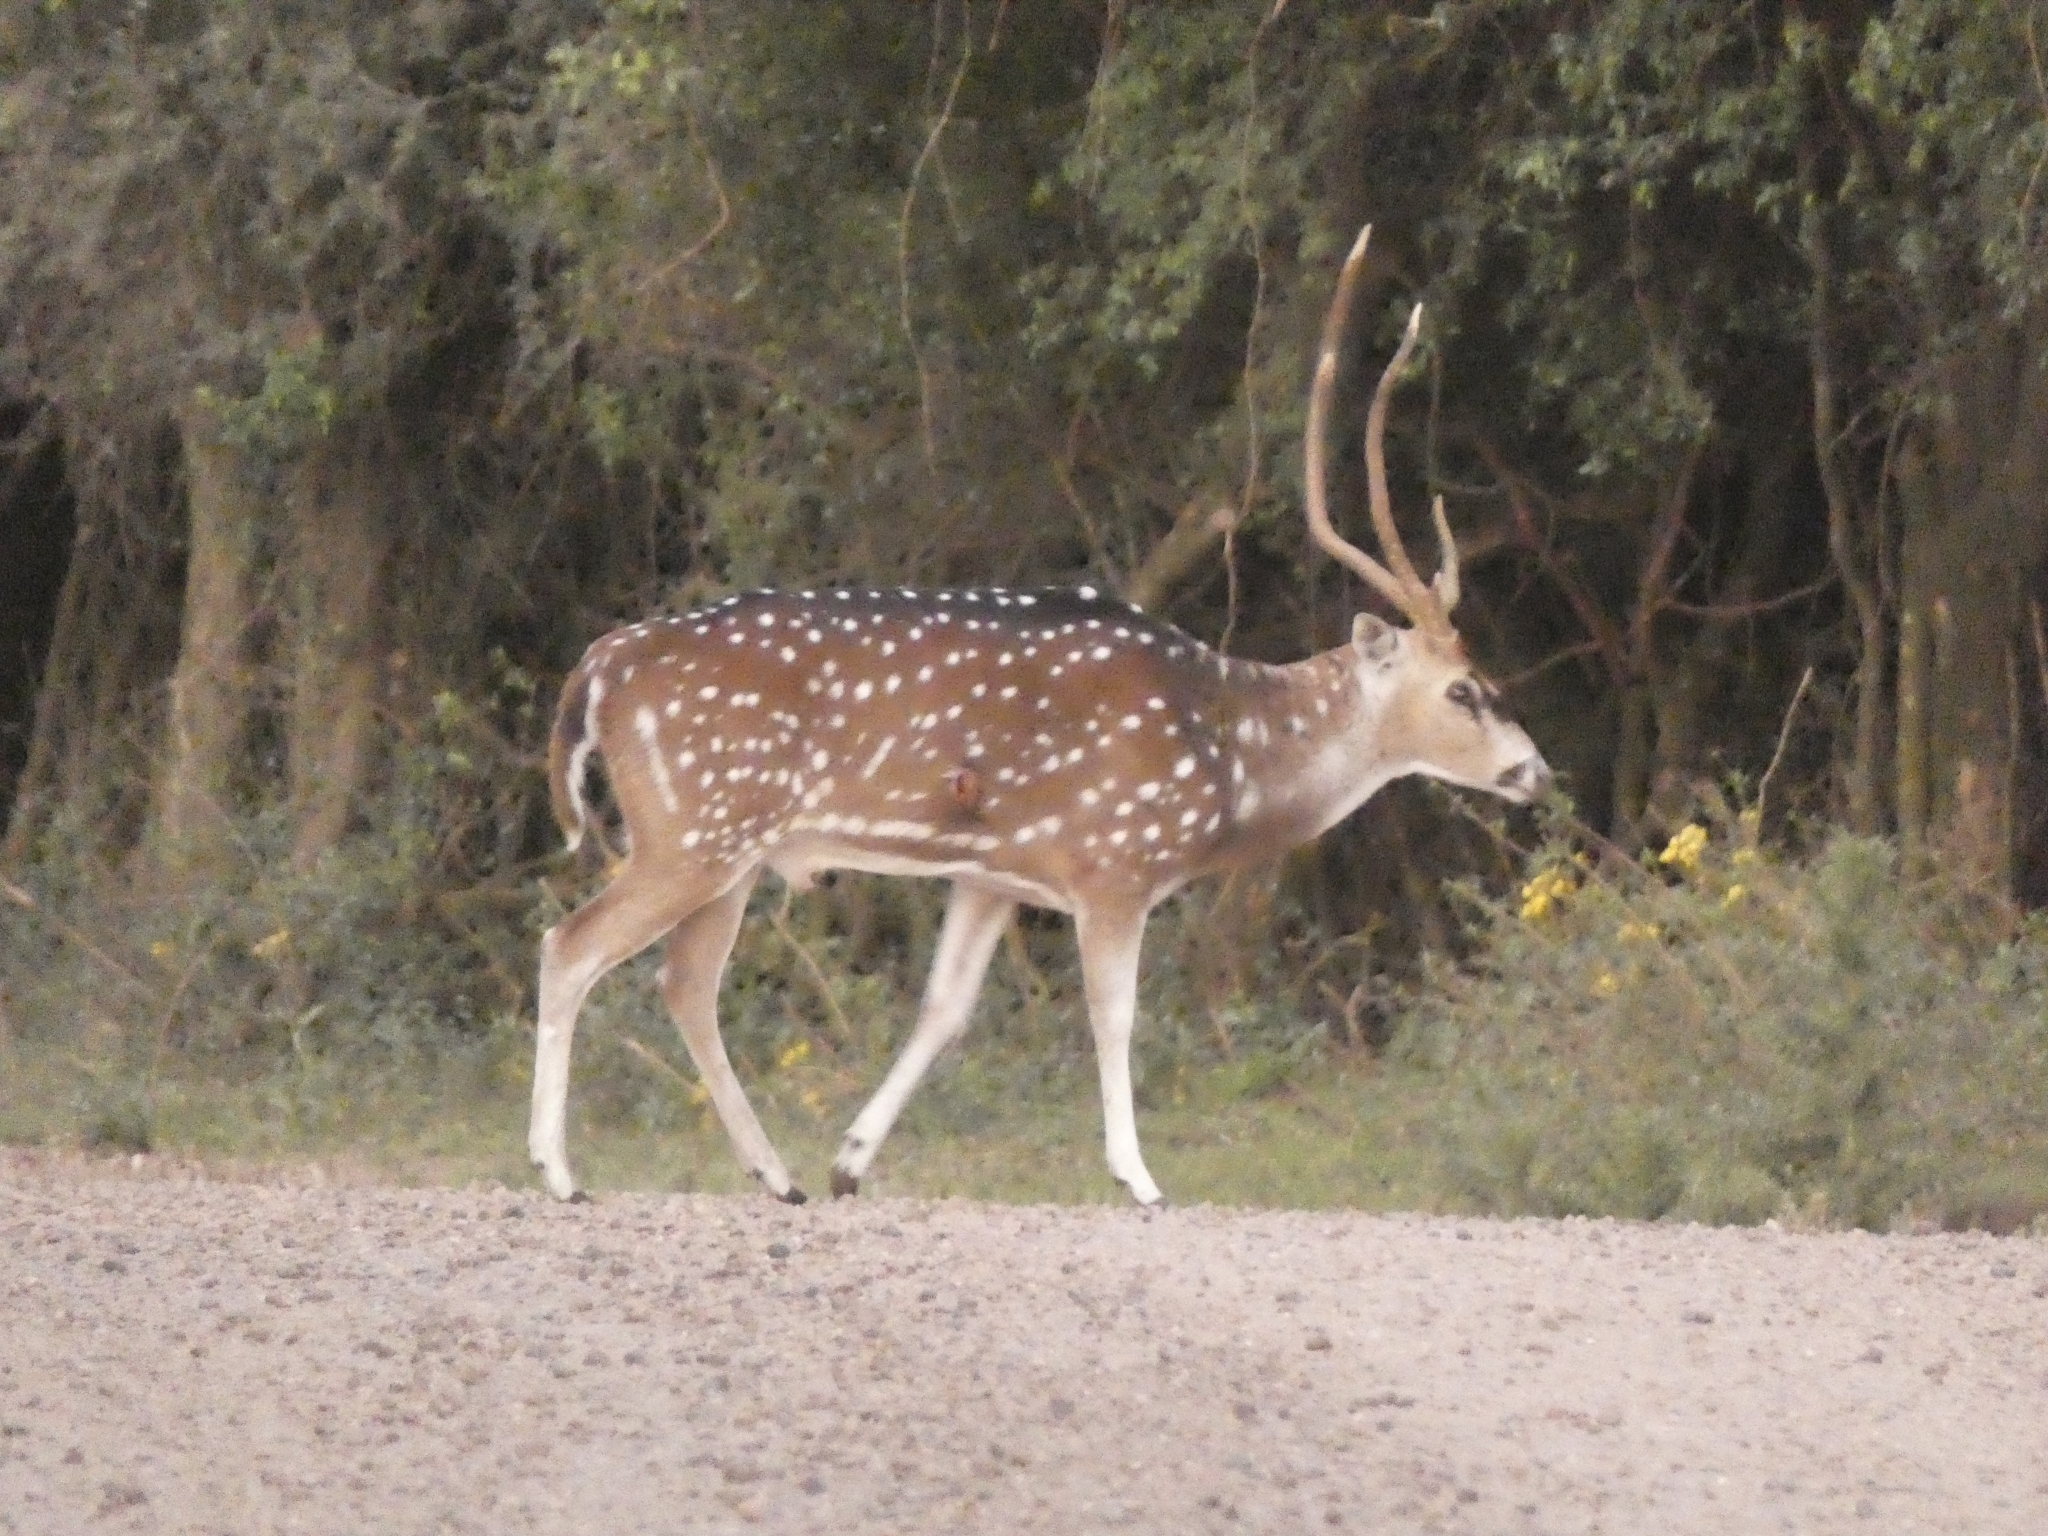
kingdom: Animalia
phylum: Chordata
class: Mammalia
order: Artiodactyla
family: Cervidae
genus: Axis
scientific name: Axis axis
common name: Chital
